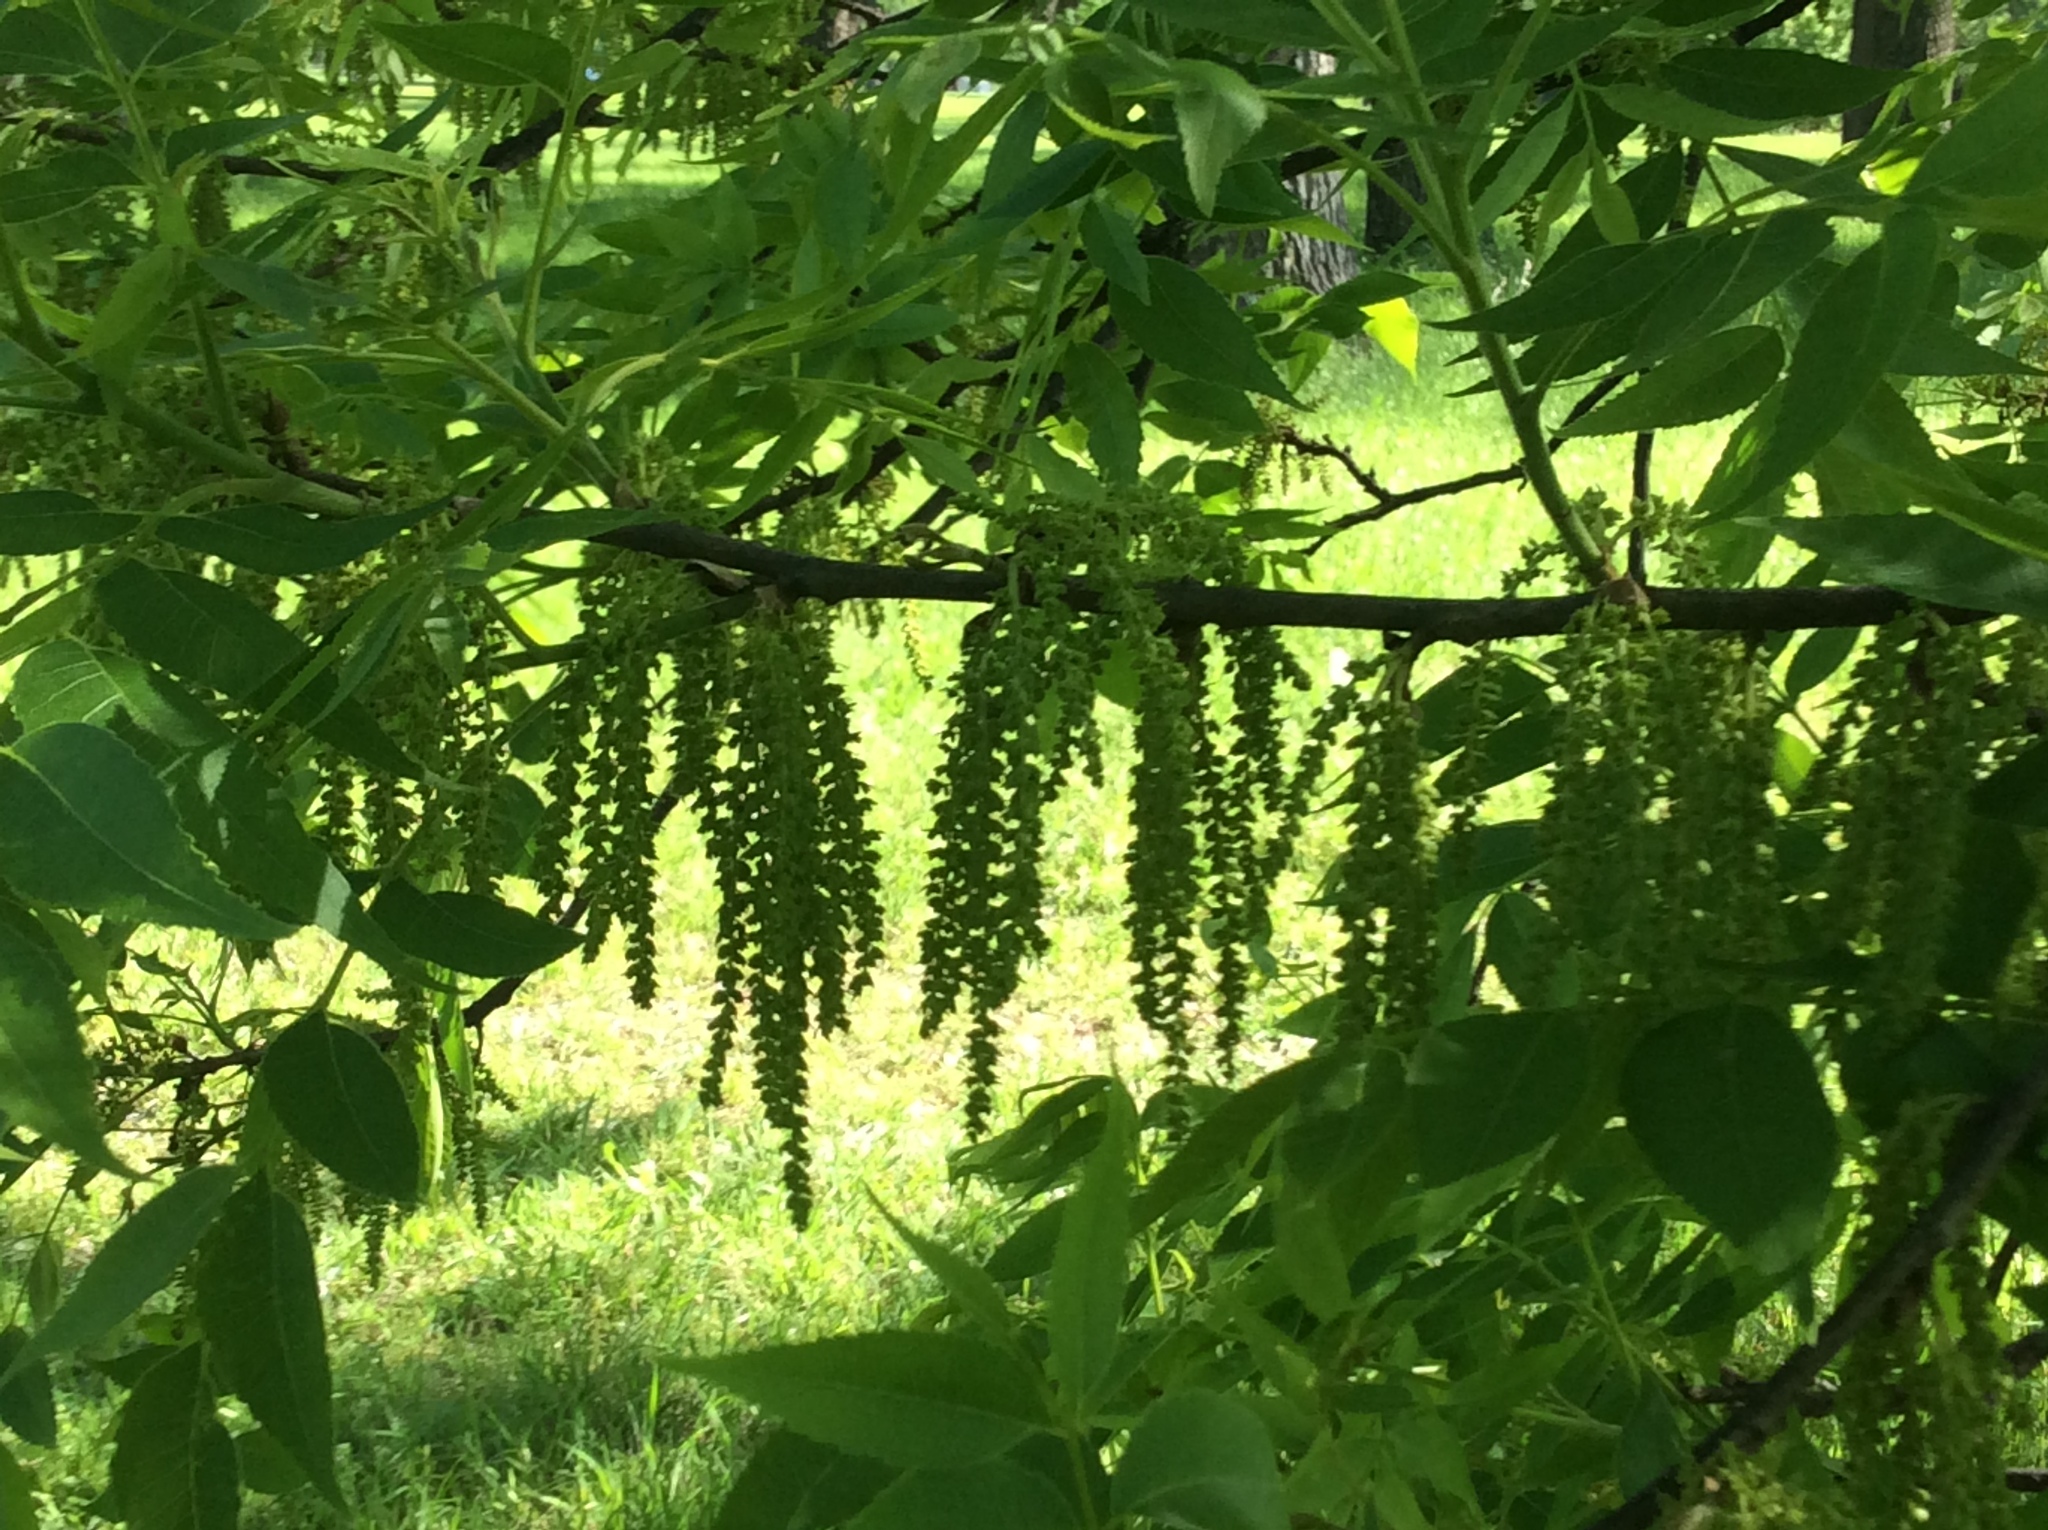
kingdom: Plantae
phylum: Tracheophyta
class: Magnoliopsida
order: Fagales
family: Juglandaceae
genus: Carya
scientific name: Carya illinoinensis
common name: Pecan
